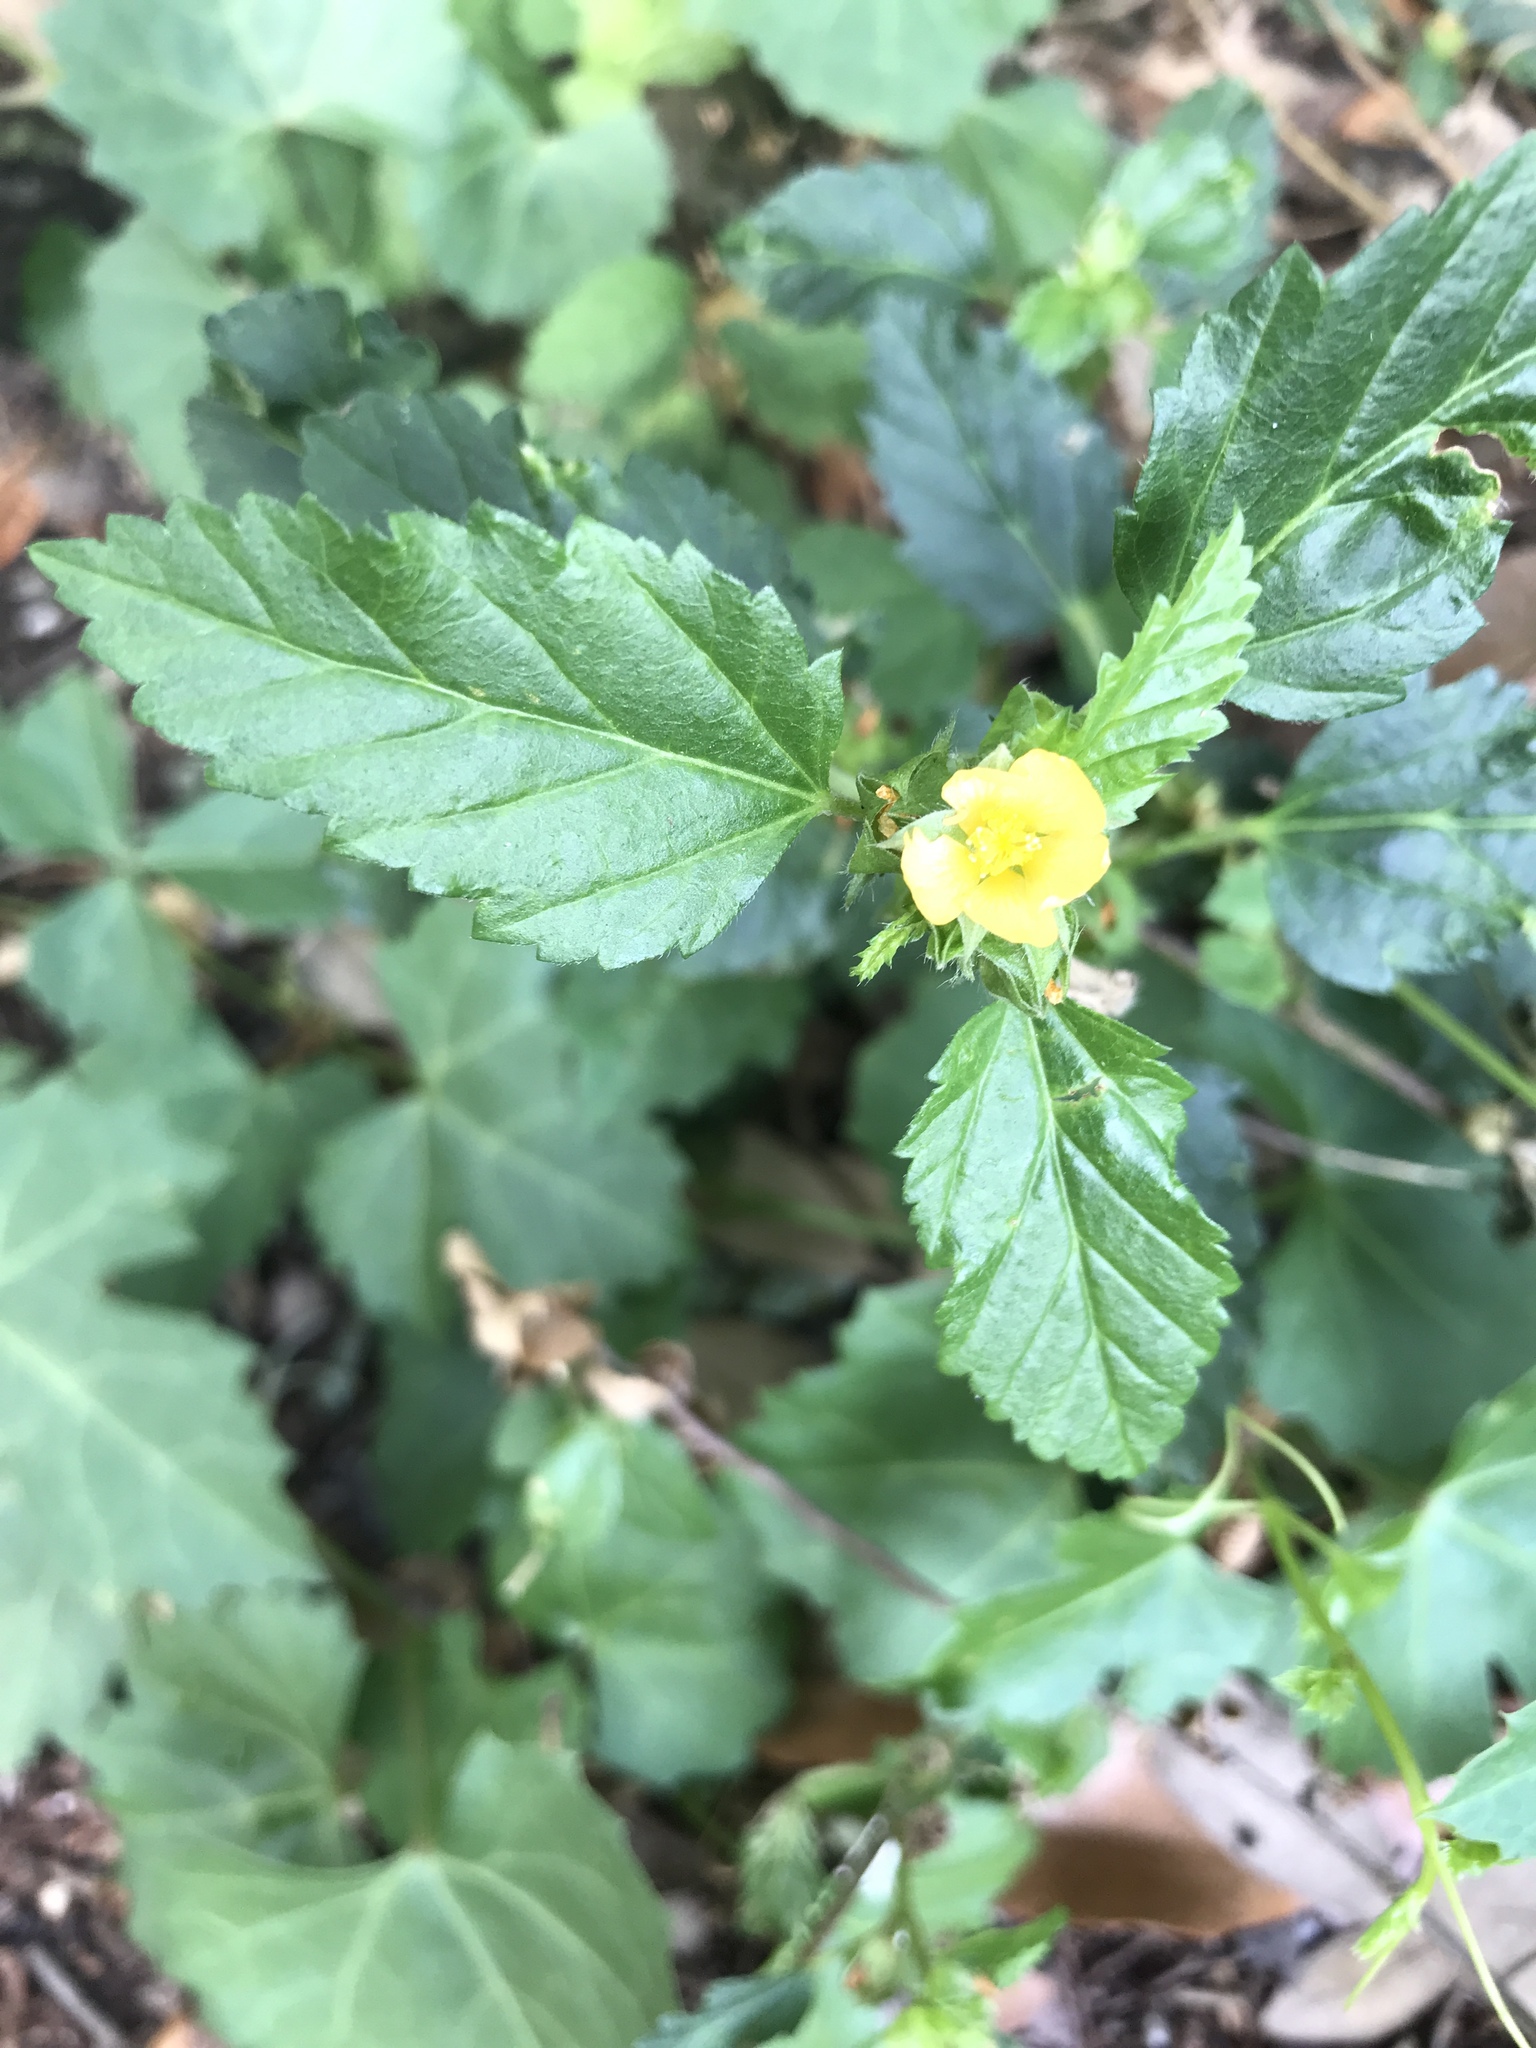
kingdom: Plantae
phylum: Tracheophyta
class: Magnoliopsida
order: Malvales
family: Malvaceae
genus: Malvastrum
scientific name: Malvastrum coromandelianum
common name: Threelobe false mallow
